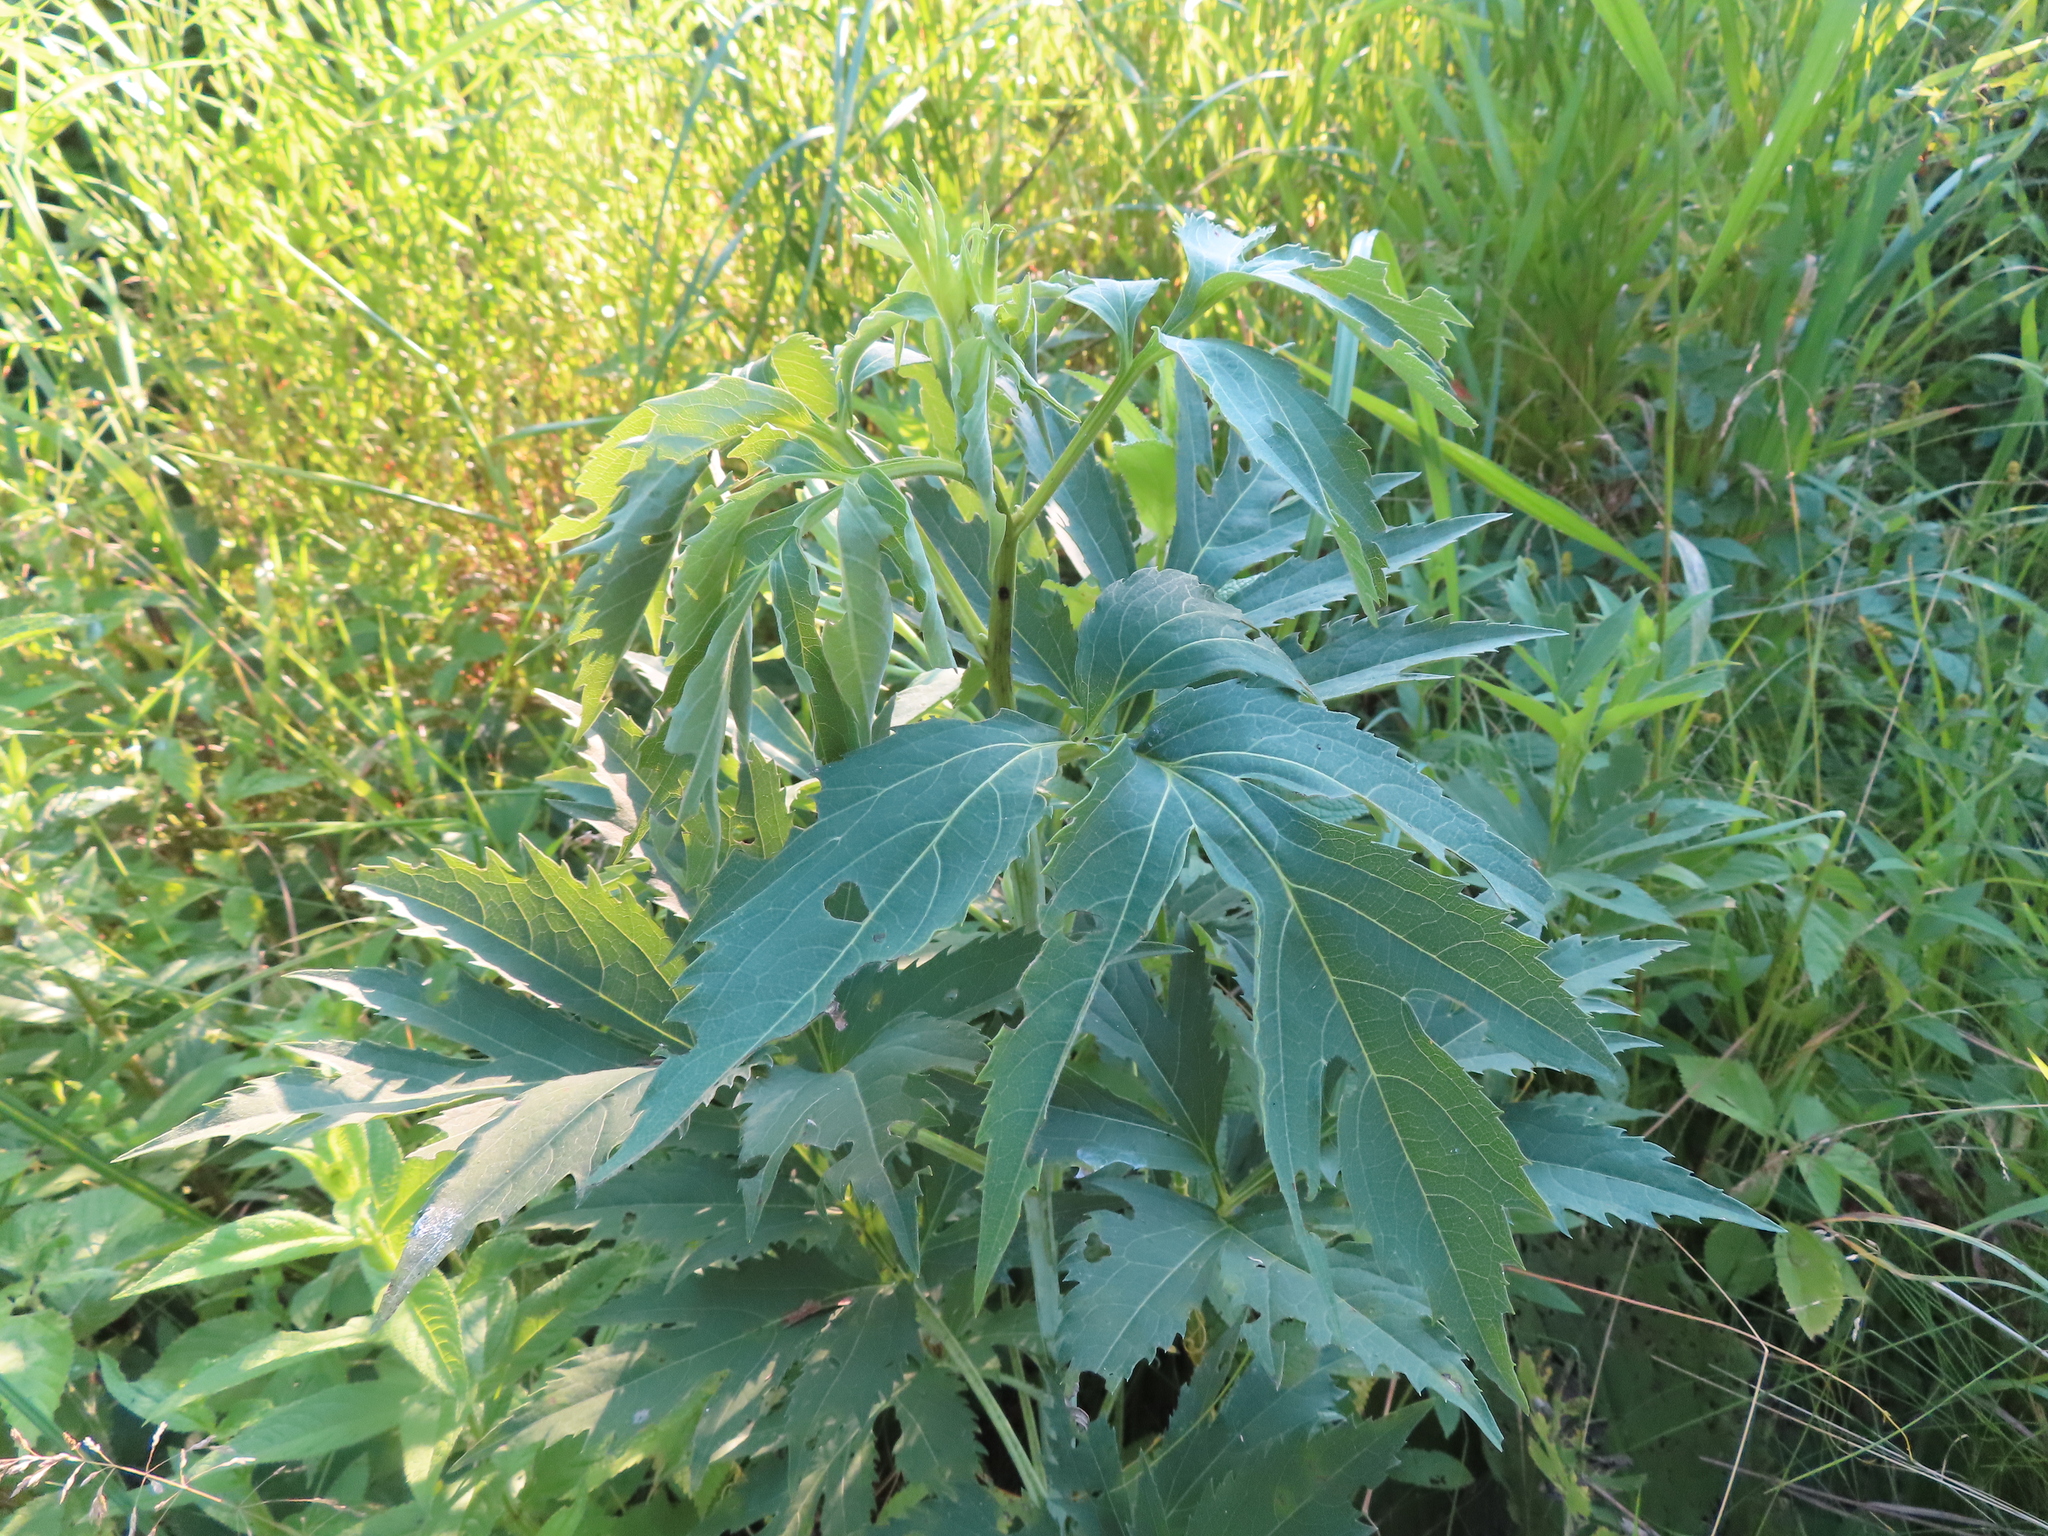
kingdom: Plantae
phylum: Tracheophyta
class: Magnoliopsida
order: Asterales
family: Asteraceae
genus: Rudbeckia
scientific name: Rudbeckia laciniata
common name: Coneflower
